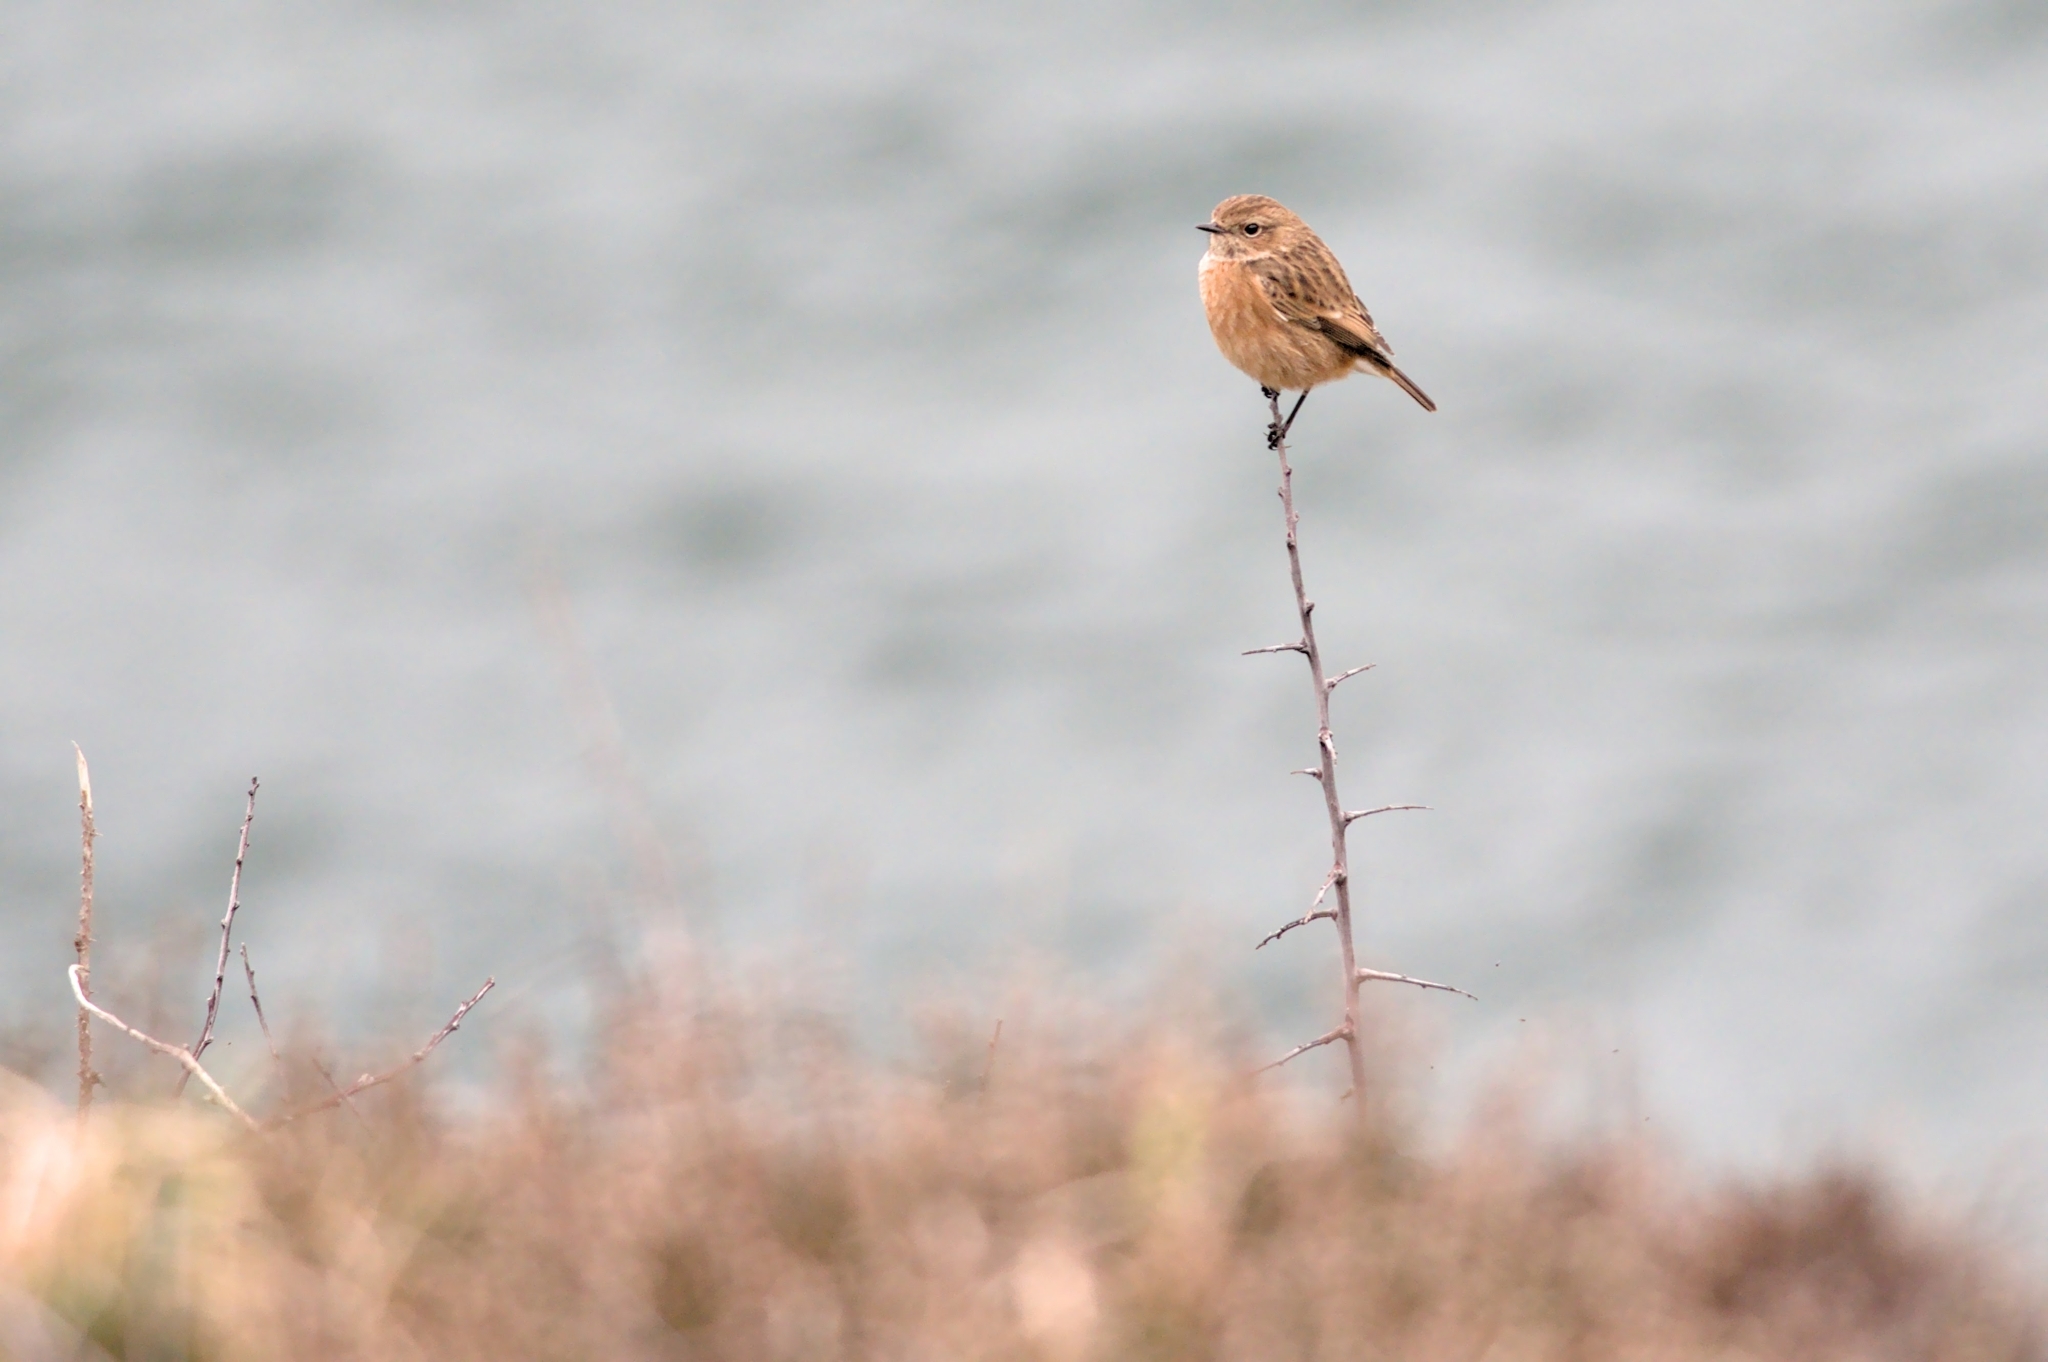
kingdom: Animalia
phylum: Chordata
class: Aves
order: Passeriformes
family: Muscicapidae
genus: Saxicola
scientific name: Saxicola rubicola
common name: European stonechat
